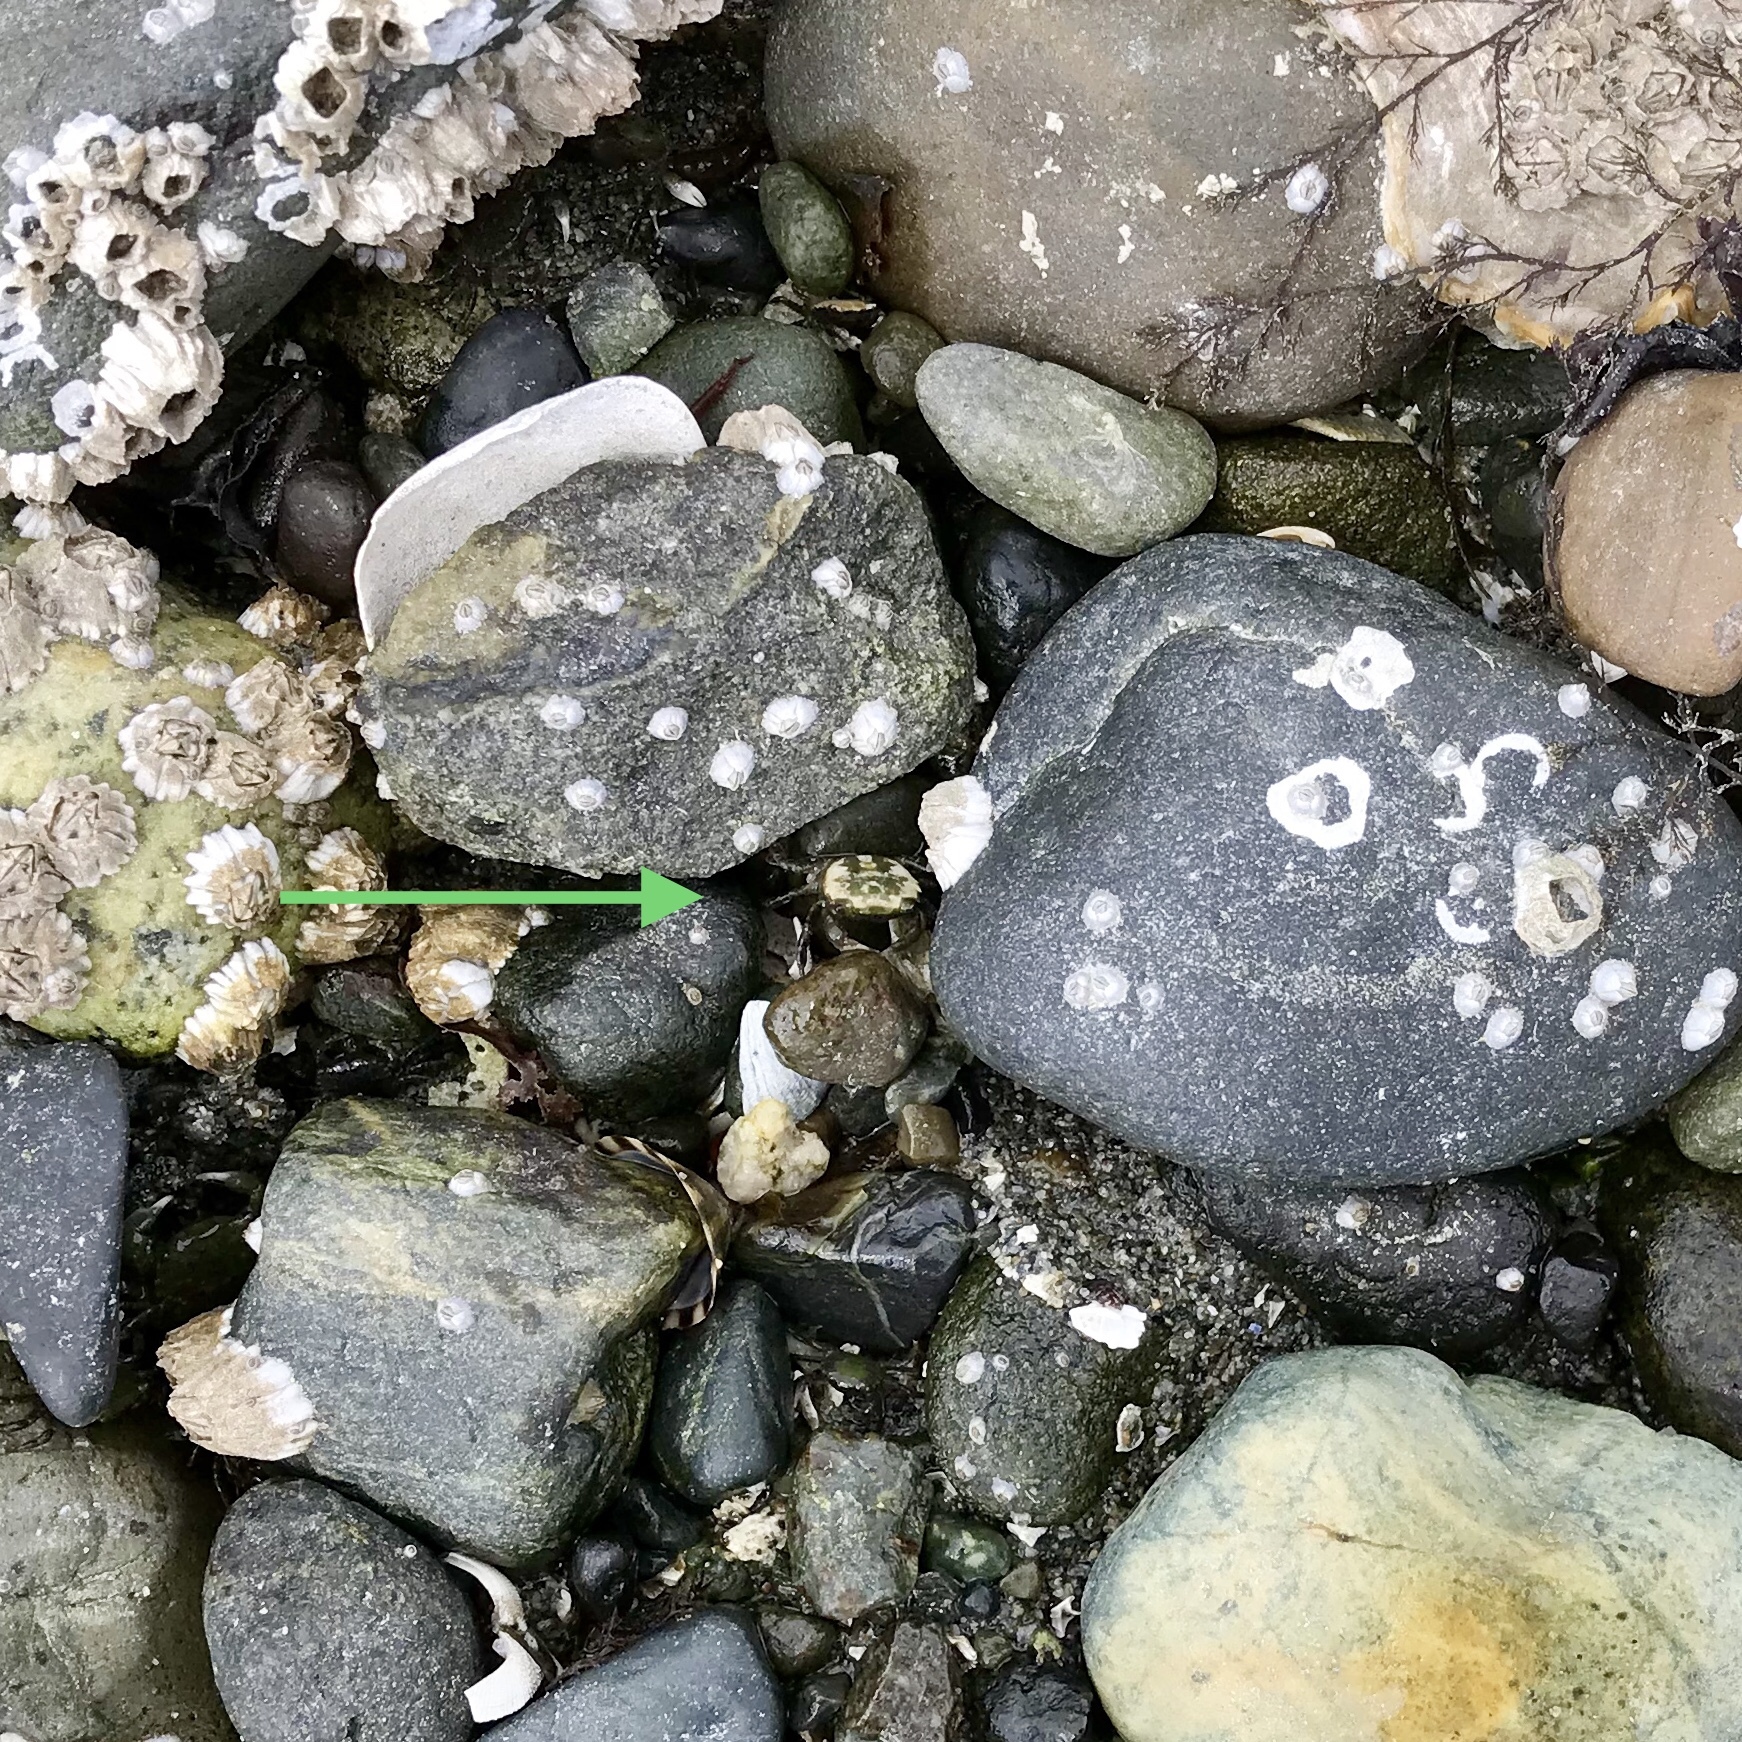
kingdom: Animalia
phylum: Arthropoda
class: Malacostraca
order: Decapoda
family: Varunidae
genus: Hemigrapsus
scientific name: Hemigrapsus oregonensis
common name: Yellow shore crab
